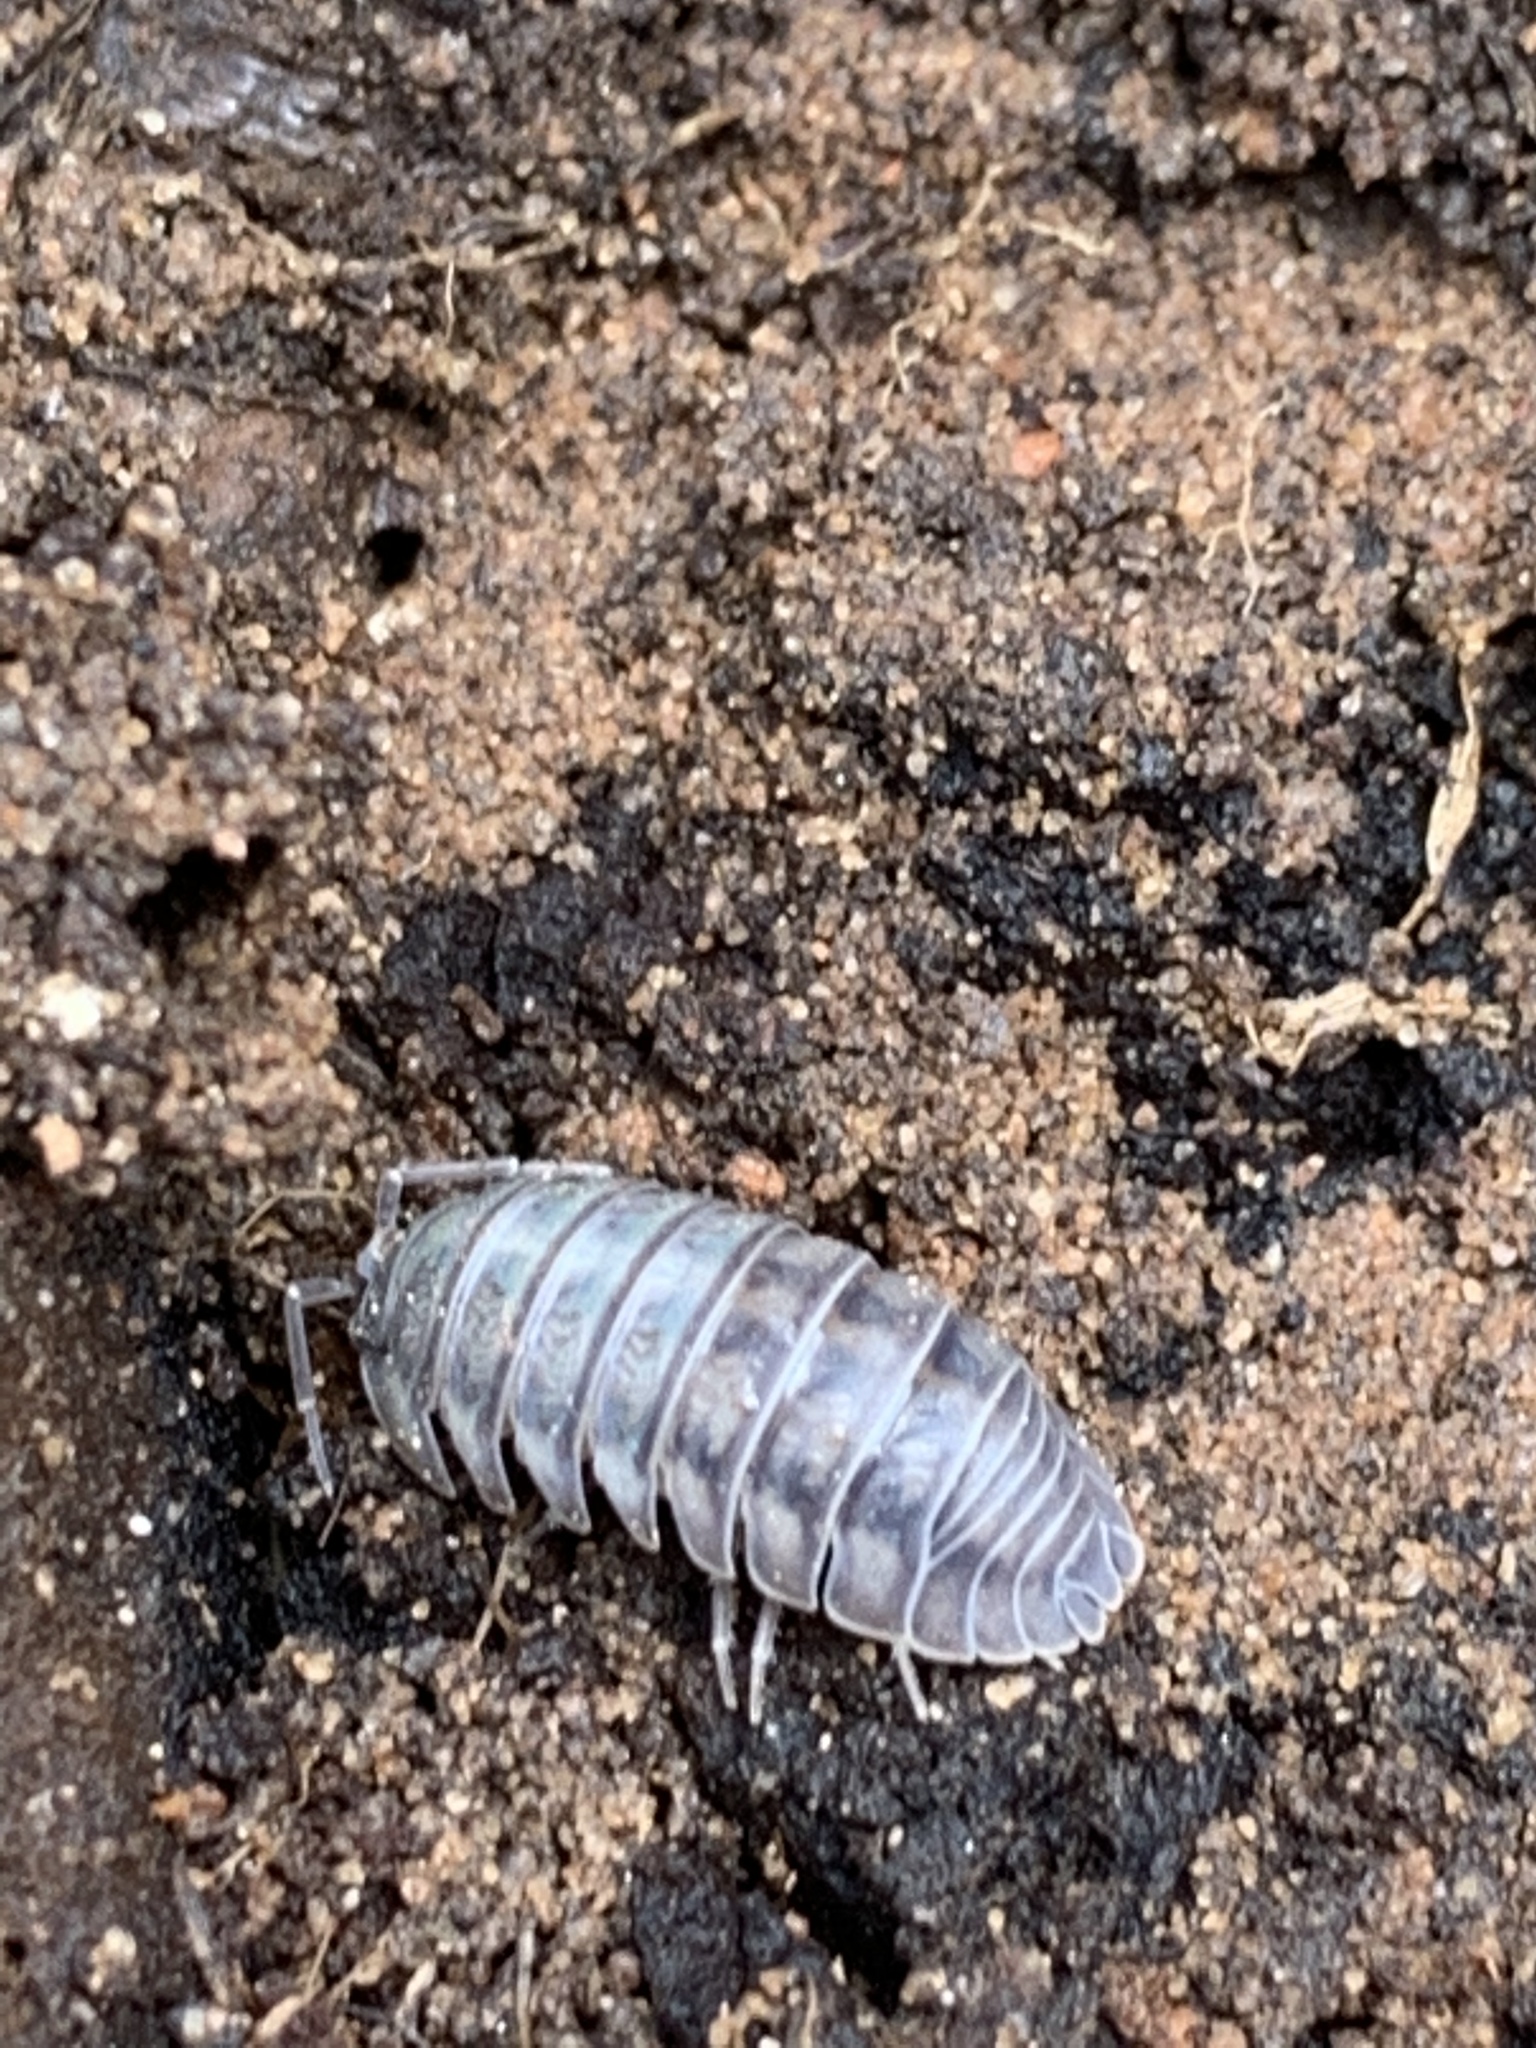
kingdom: Animalia
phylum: Arthropoda
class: Malacostraca
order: Isopoda
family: Armadillidiidae
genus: Armadillidium
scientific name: Armadillidium nasatum
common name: Isopod
